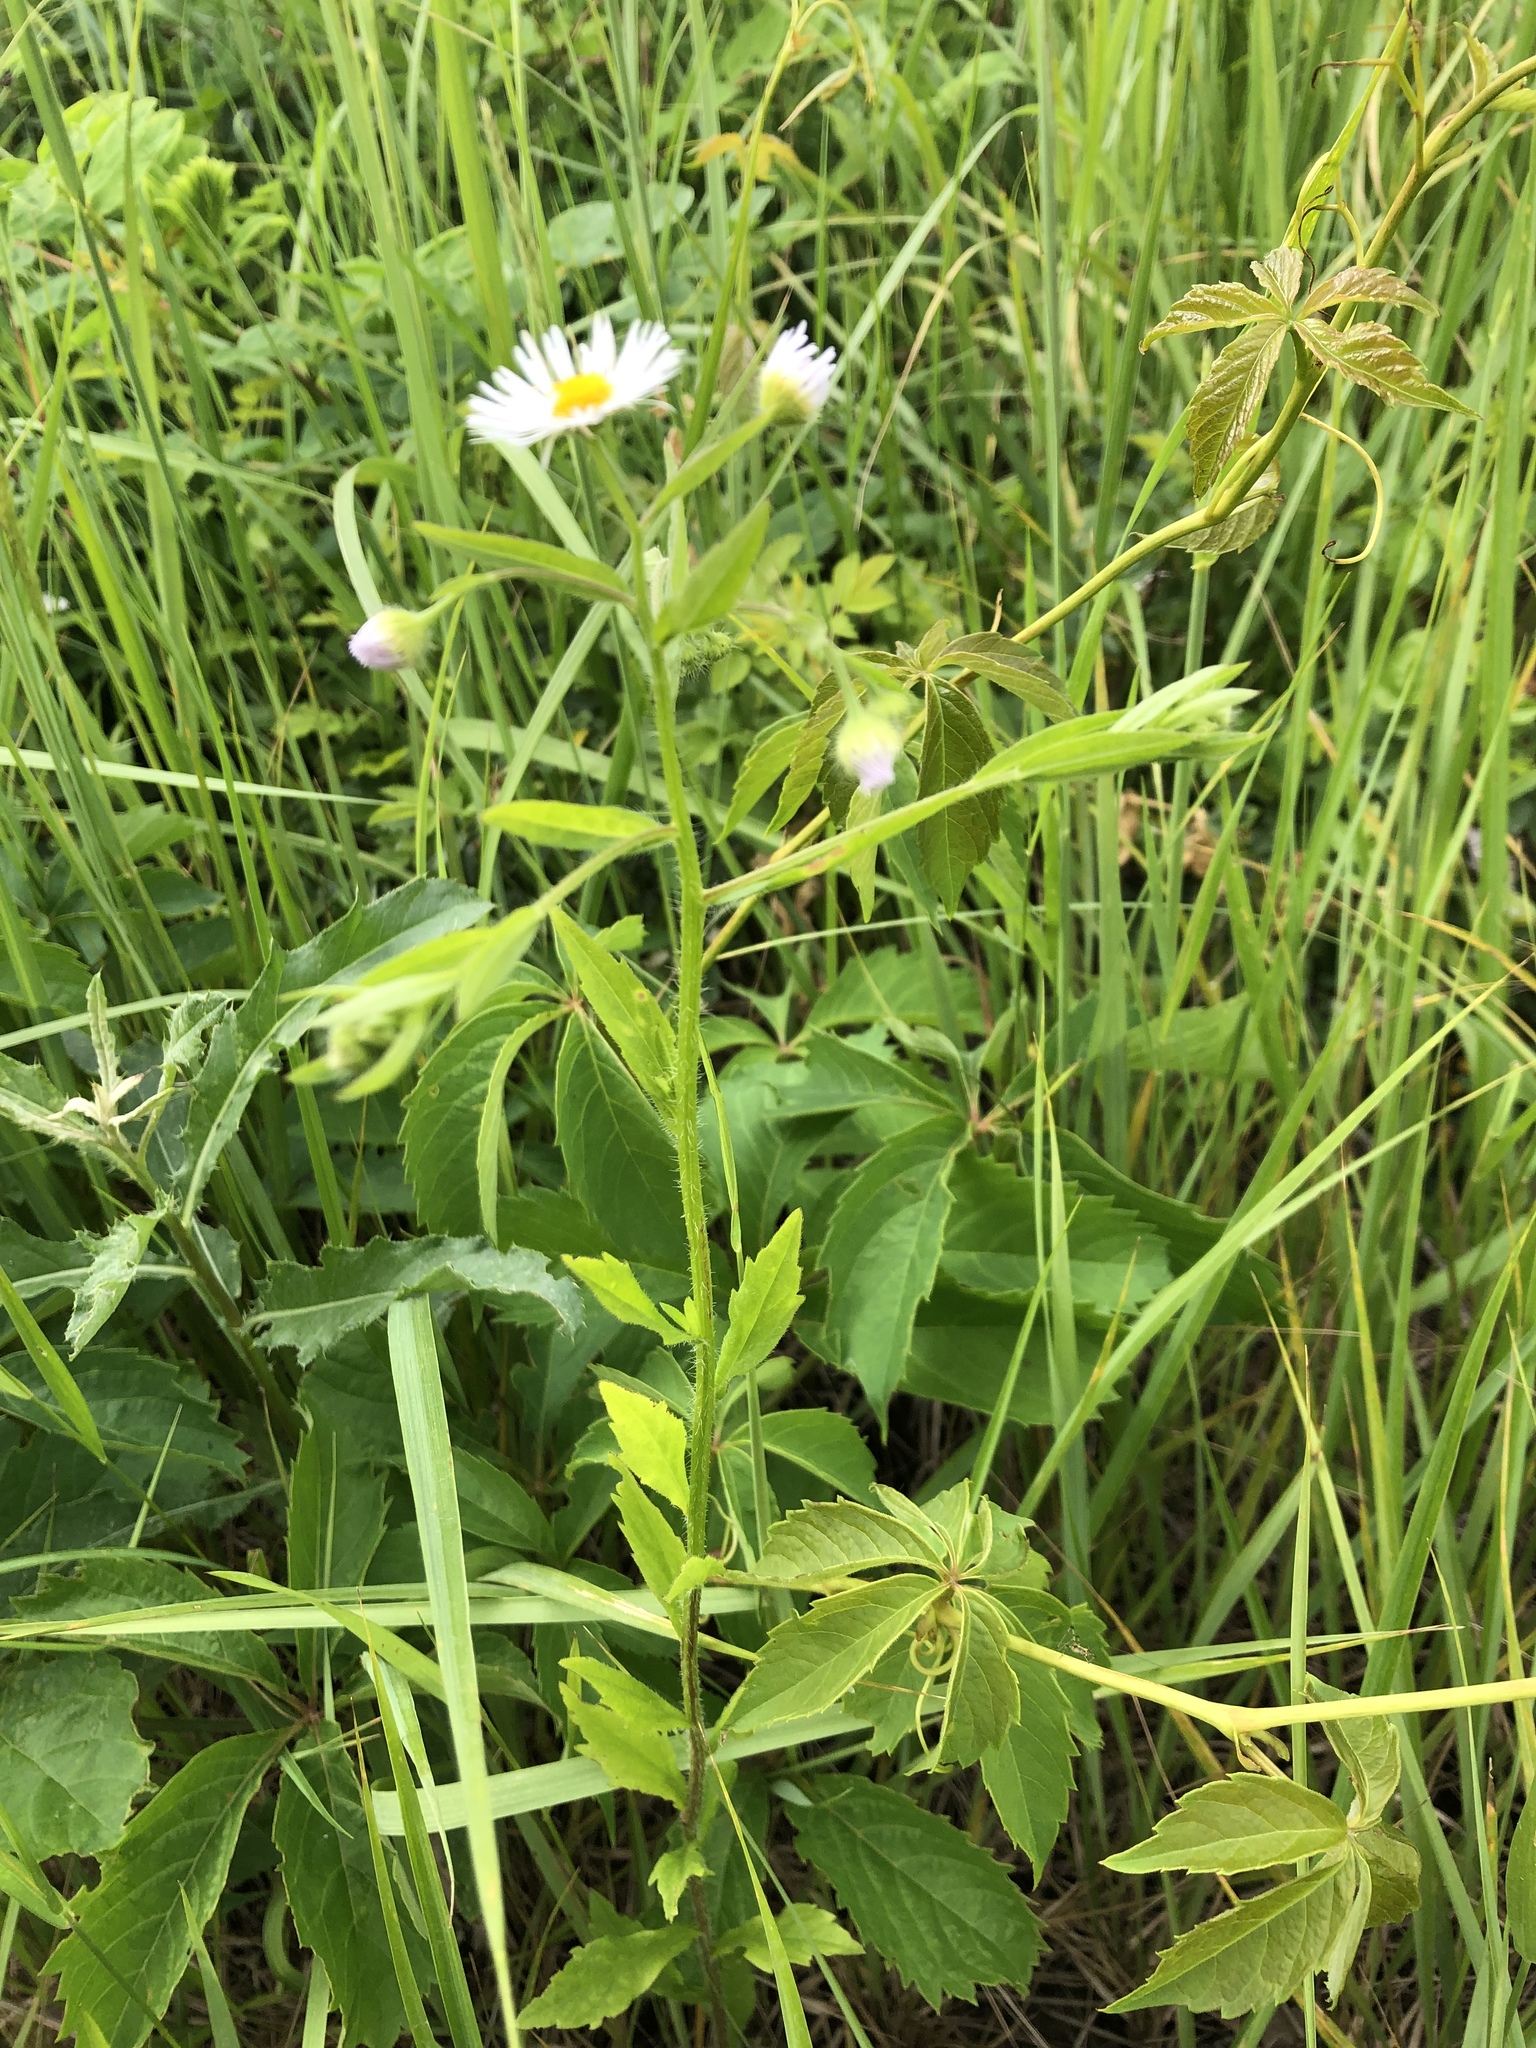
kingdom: Plantae
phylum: Tracheophyta
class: Magnoliopsida
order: Asterales
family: Asteraceae
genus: Erigeron
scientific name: Erigeron annuus
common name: Tall fleabane
